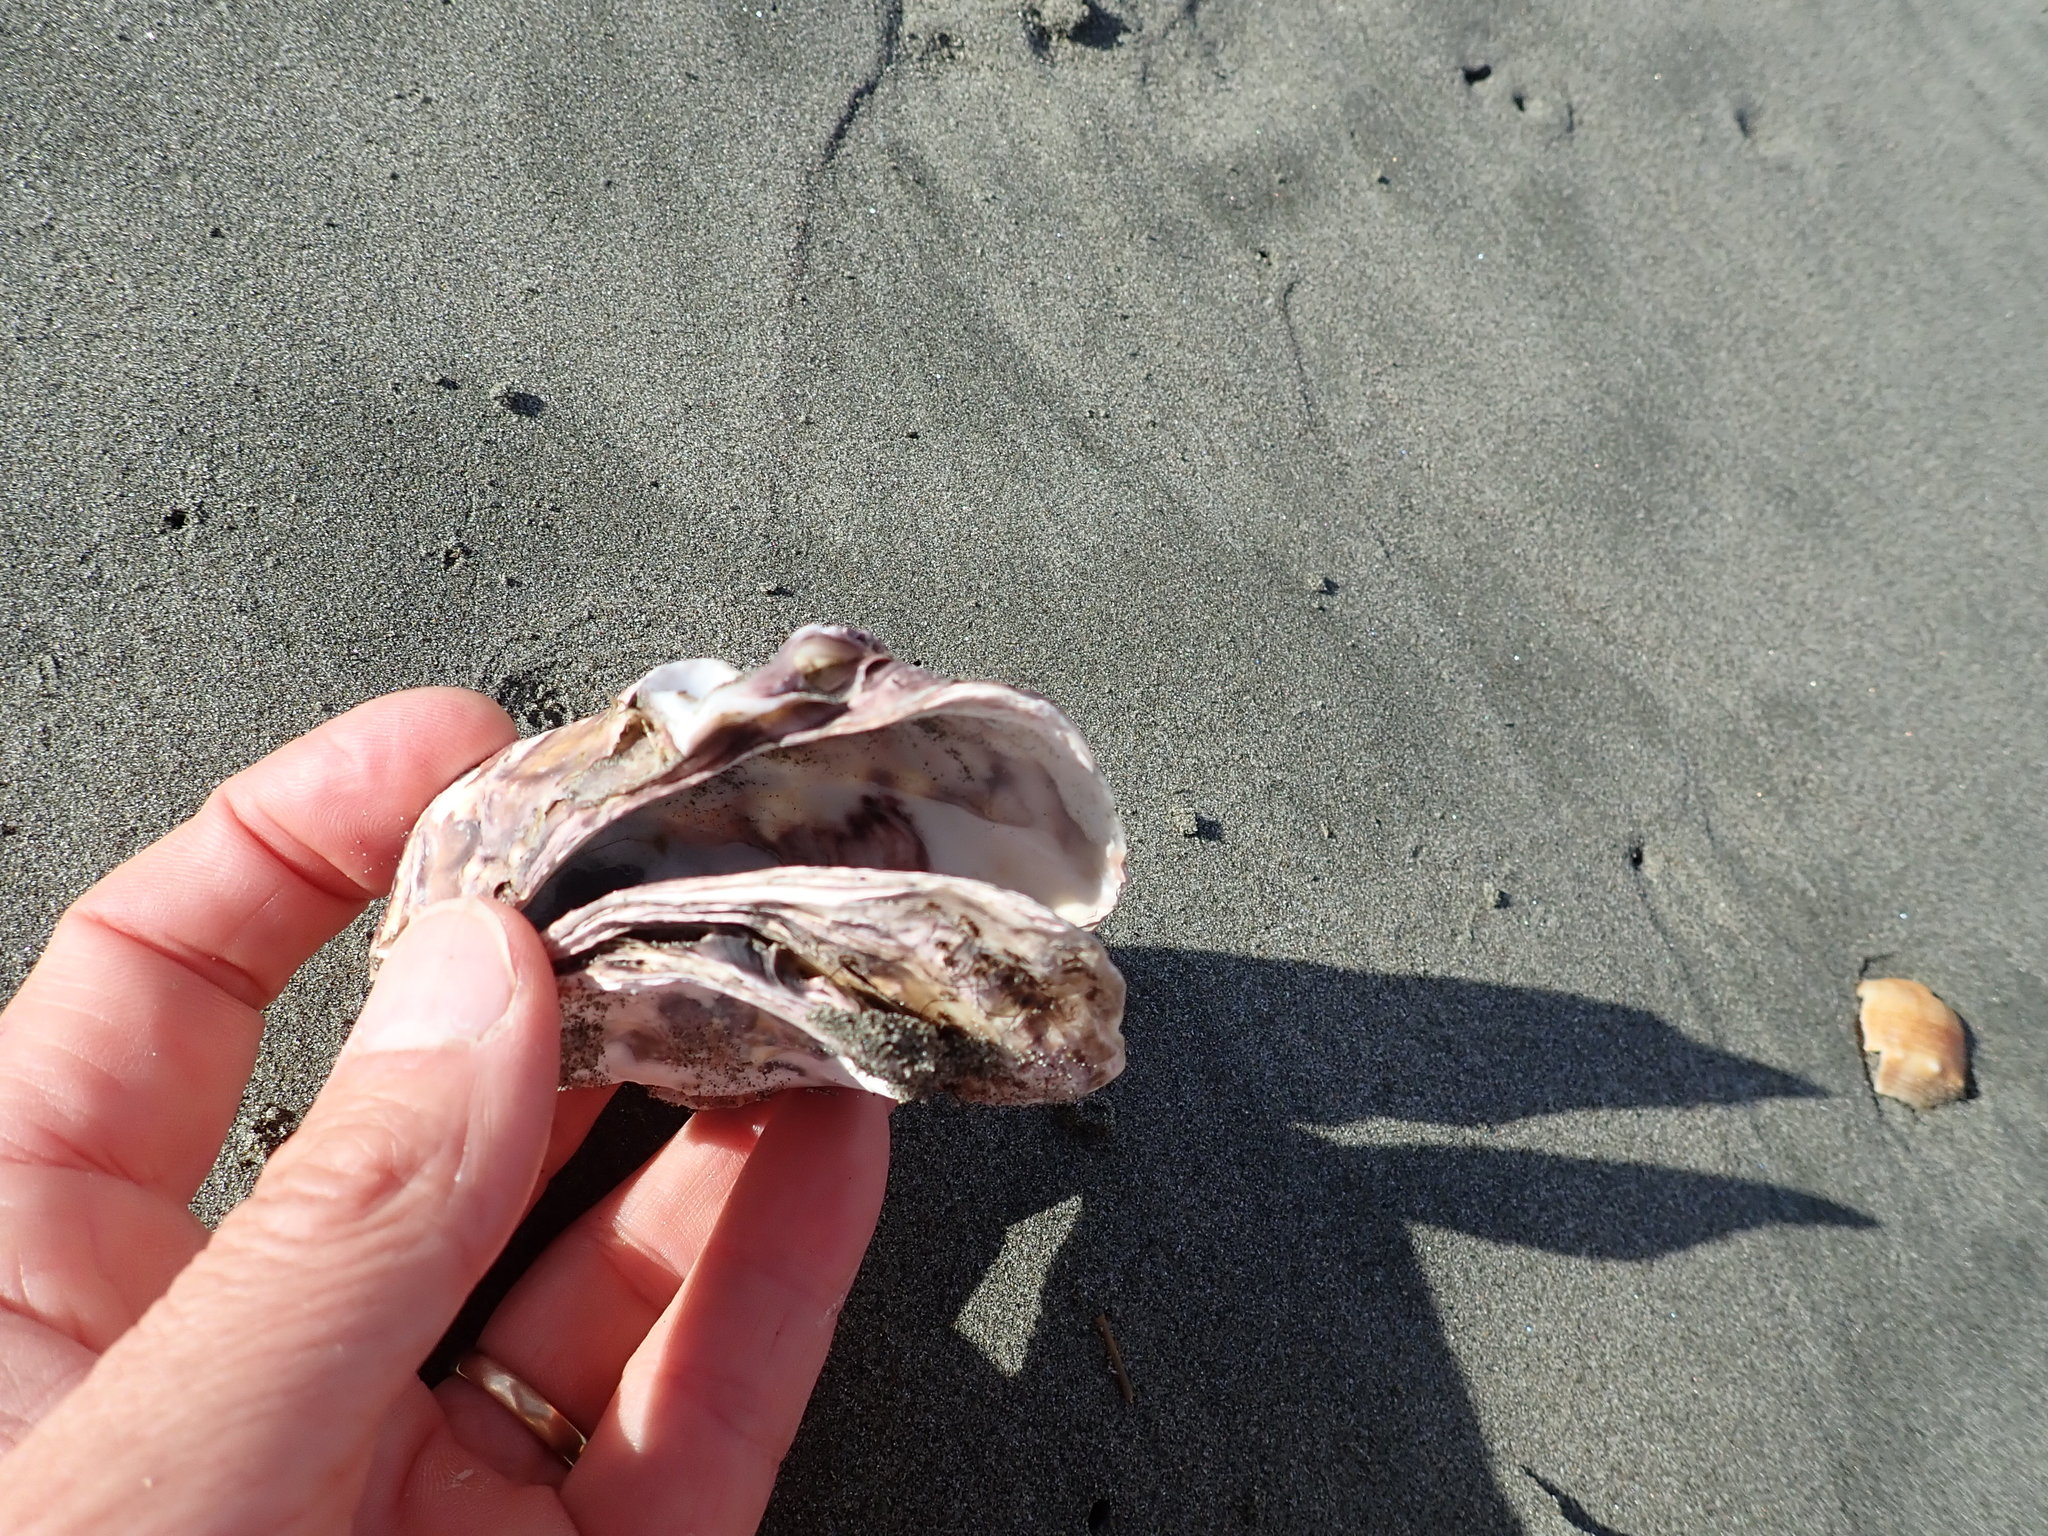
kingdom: Animalia
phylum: Mollusca
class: Bivalvia
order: Ostreida
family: Ostreidae
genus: Magallana
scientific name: Magallana gigas
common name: Pacific oyster
